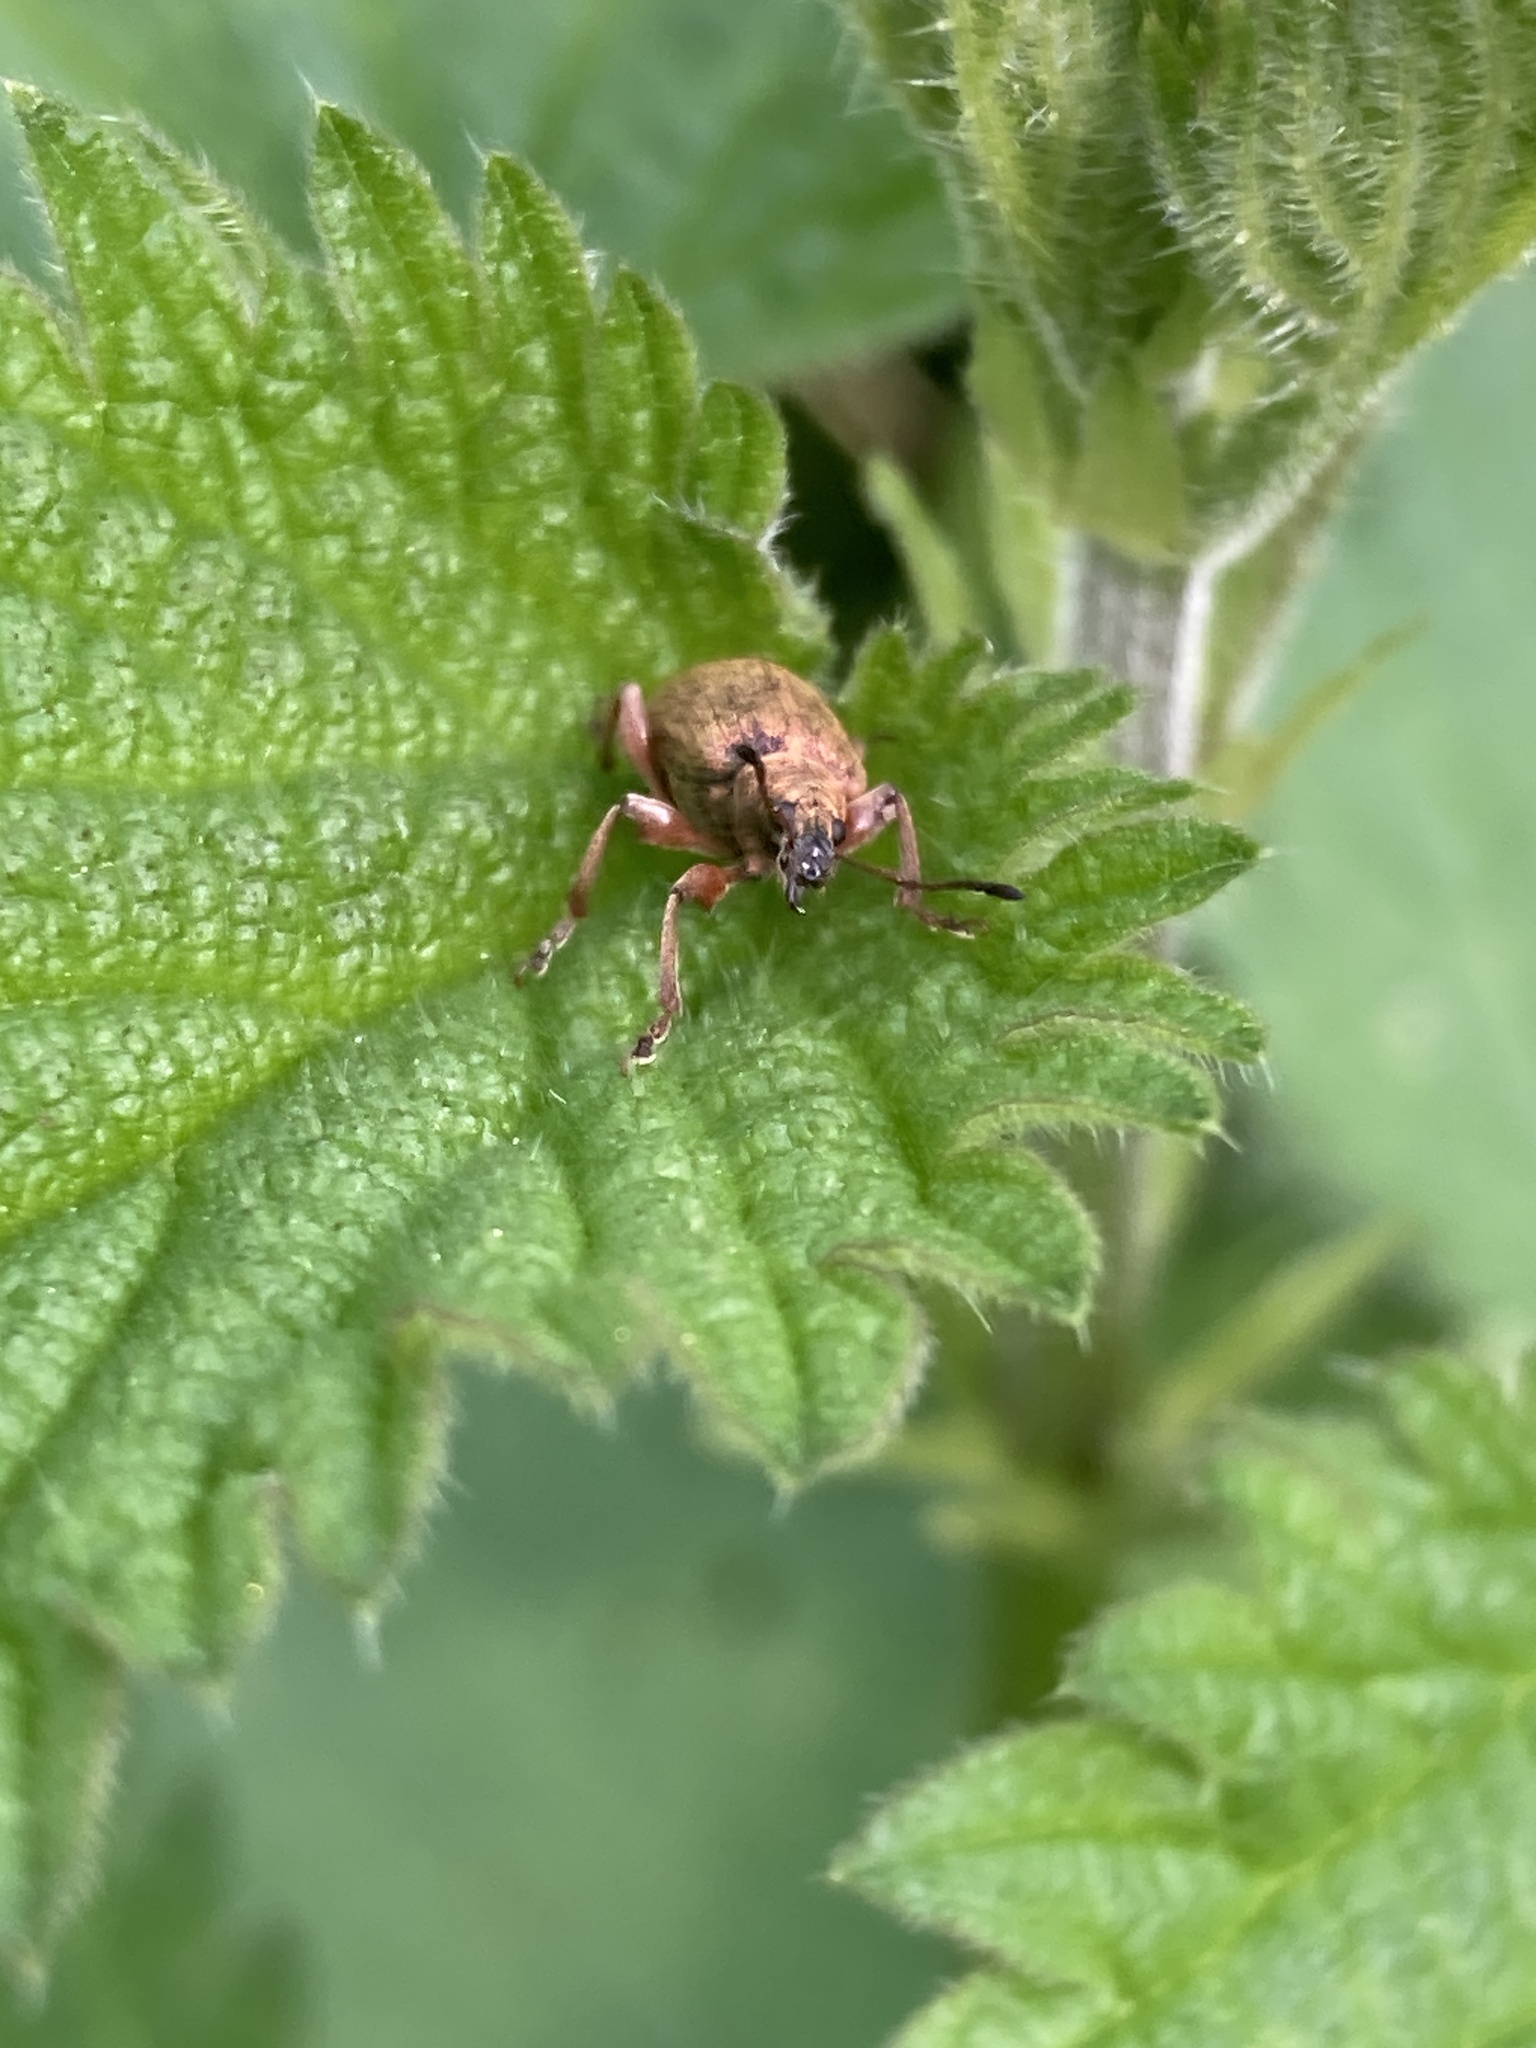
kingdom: Animalia
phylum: Arthropoda
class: Insecta
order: Coleoptera
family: Curculionidae
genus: Phyllobius
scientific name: Phyllobius pomaceus
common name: Green nettle weevil
